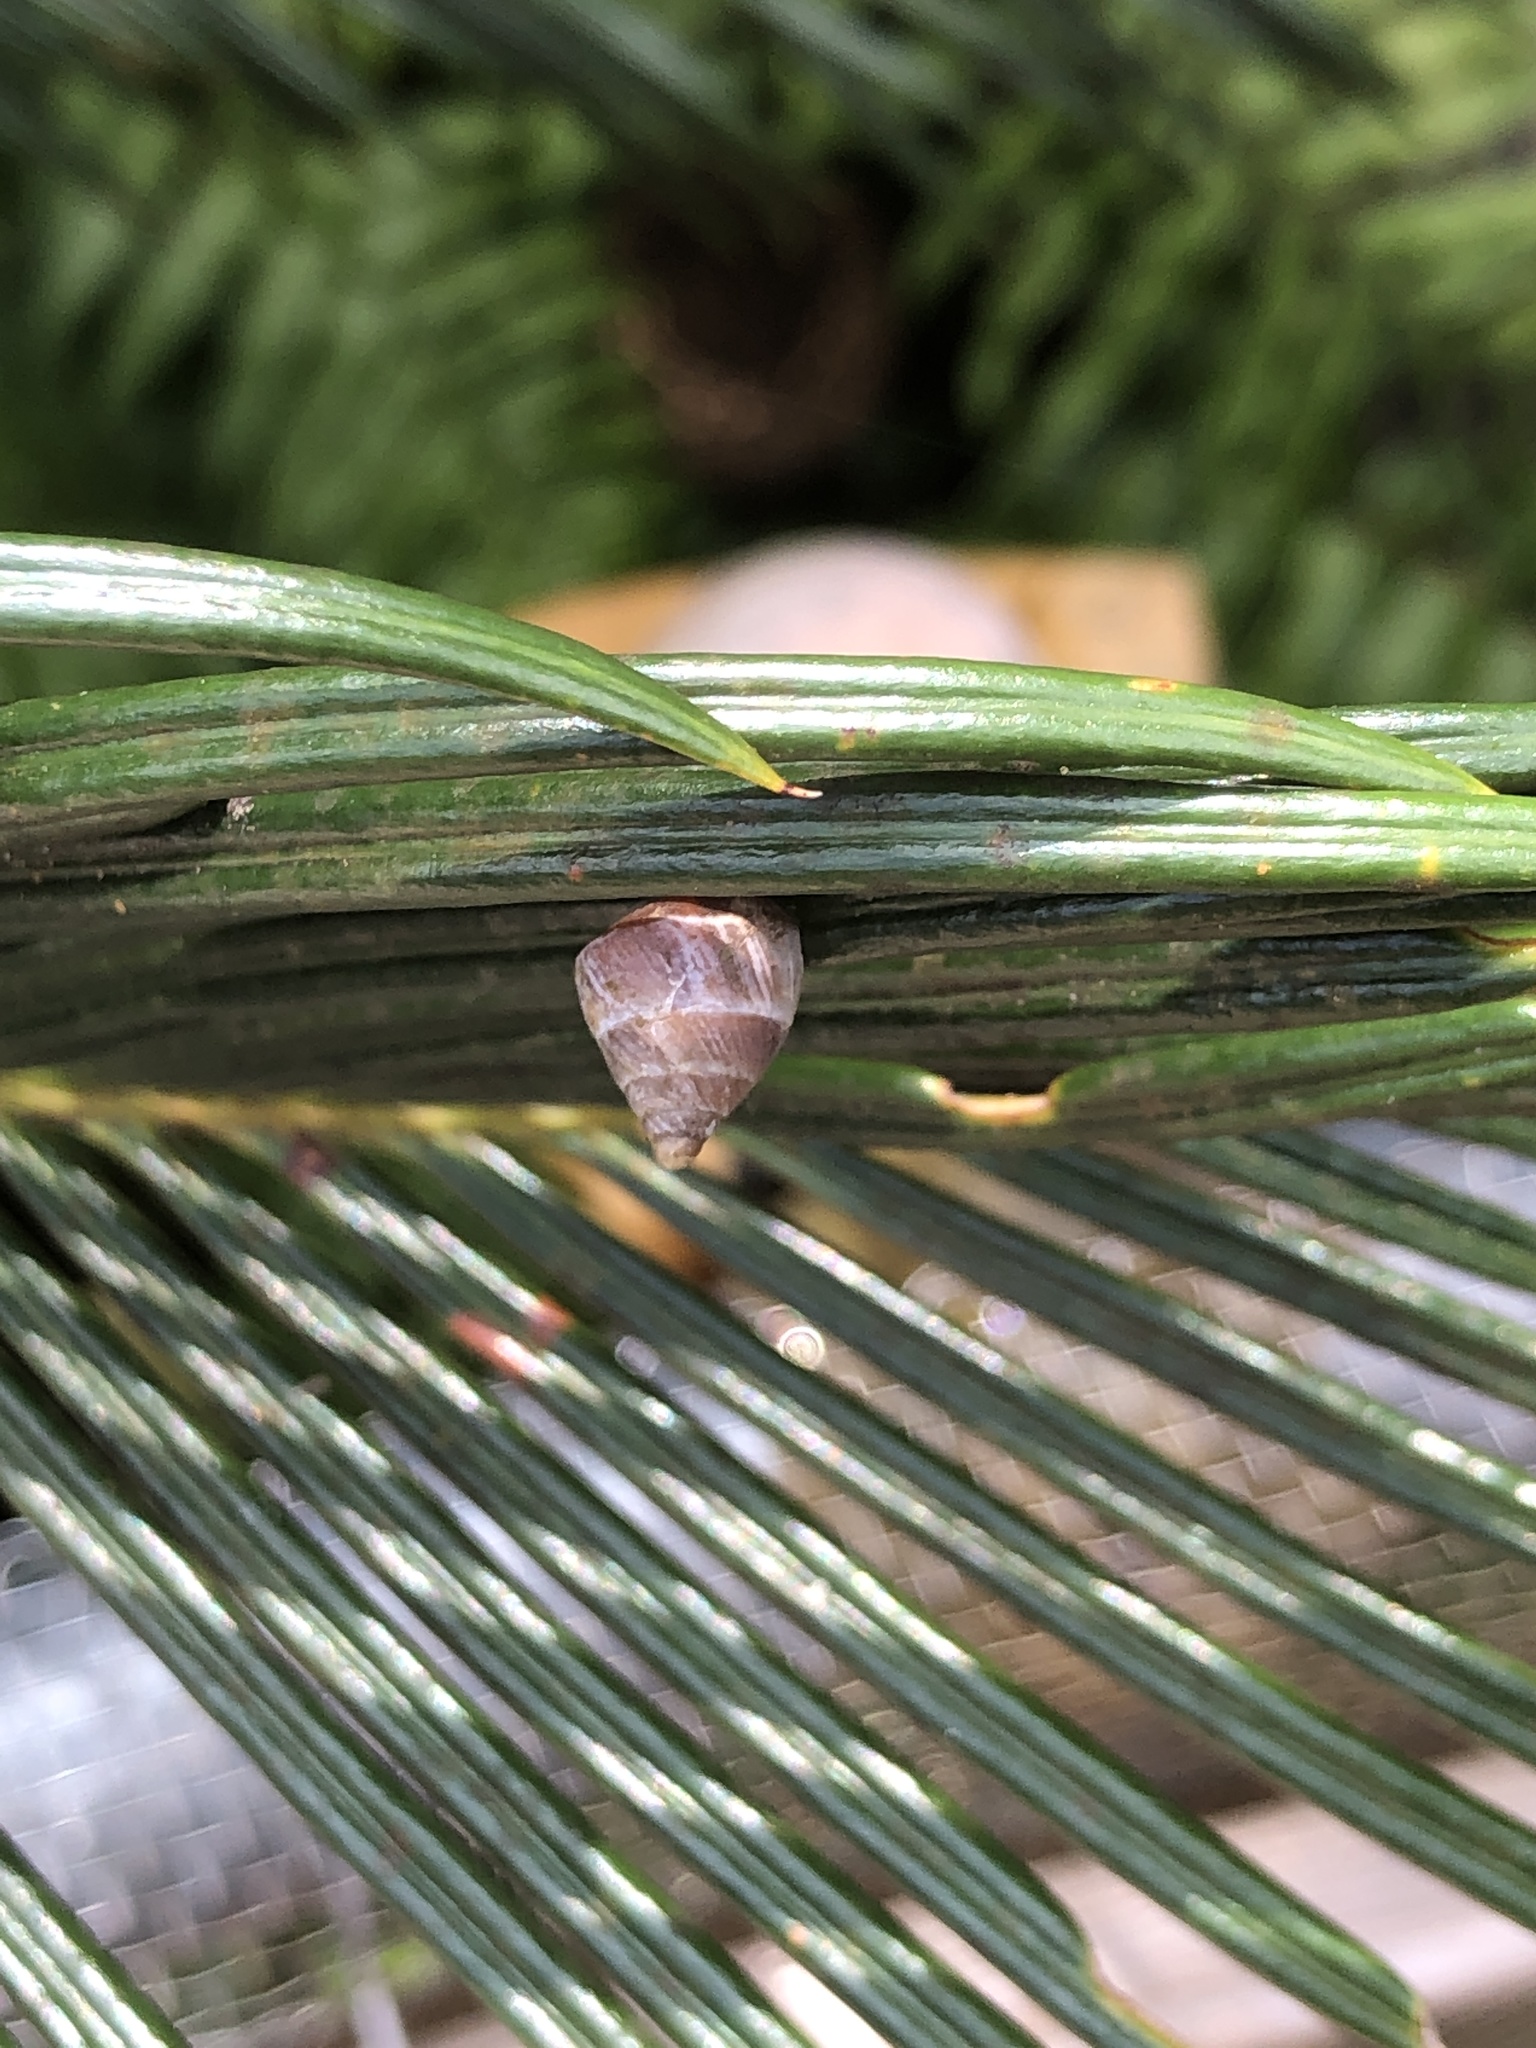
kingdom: Animalia
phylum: Mollusca
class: Gastropoda
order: Stylommatophora
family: Enidae
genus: Luchuena
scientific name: Luchuena reticulata
